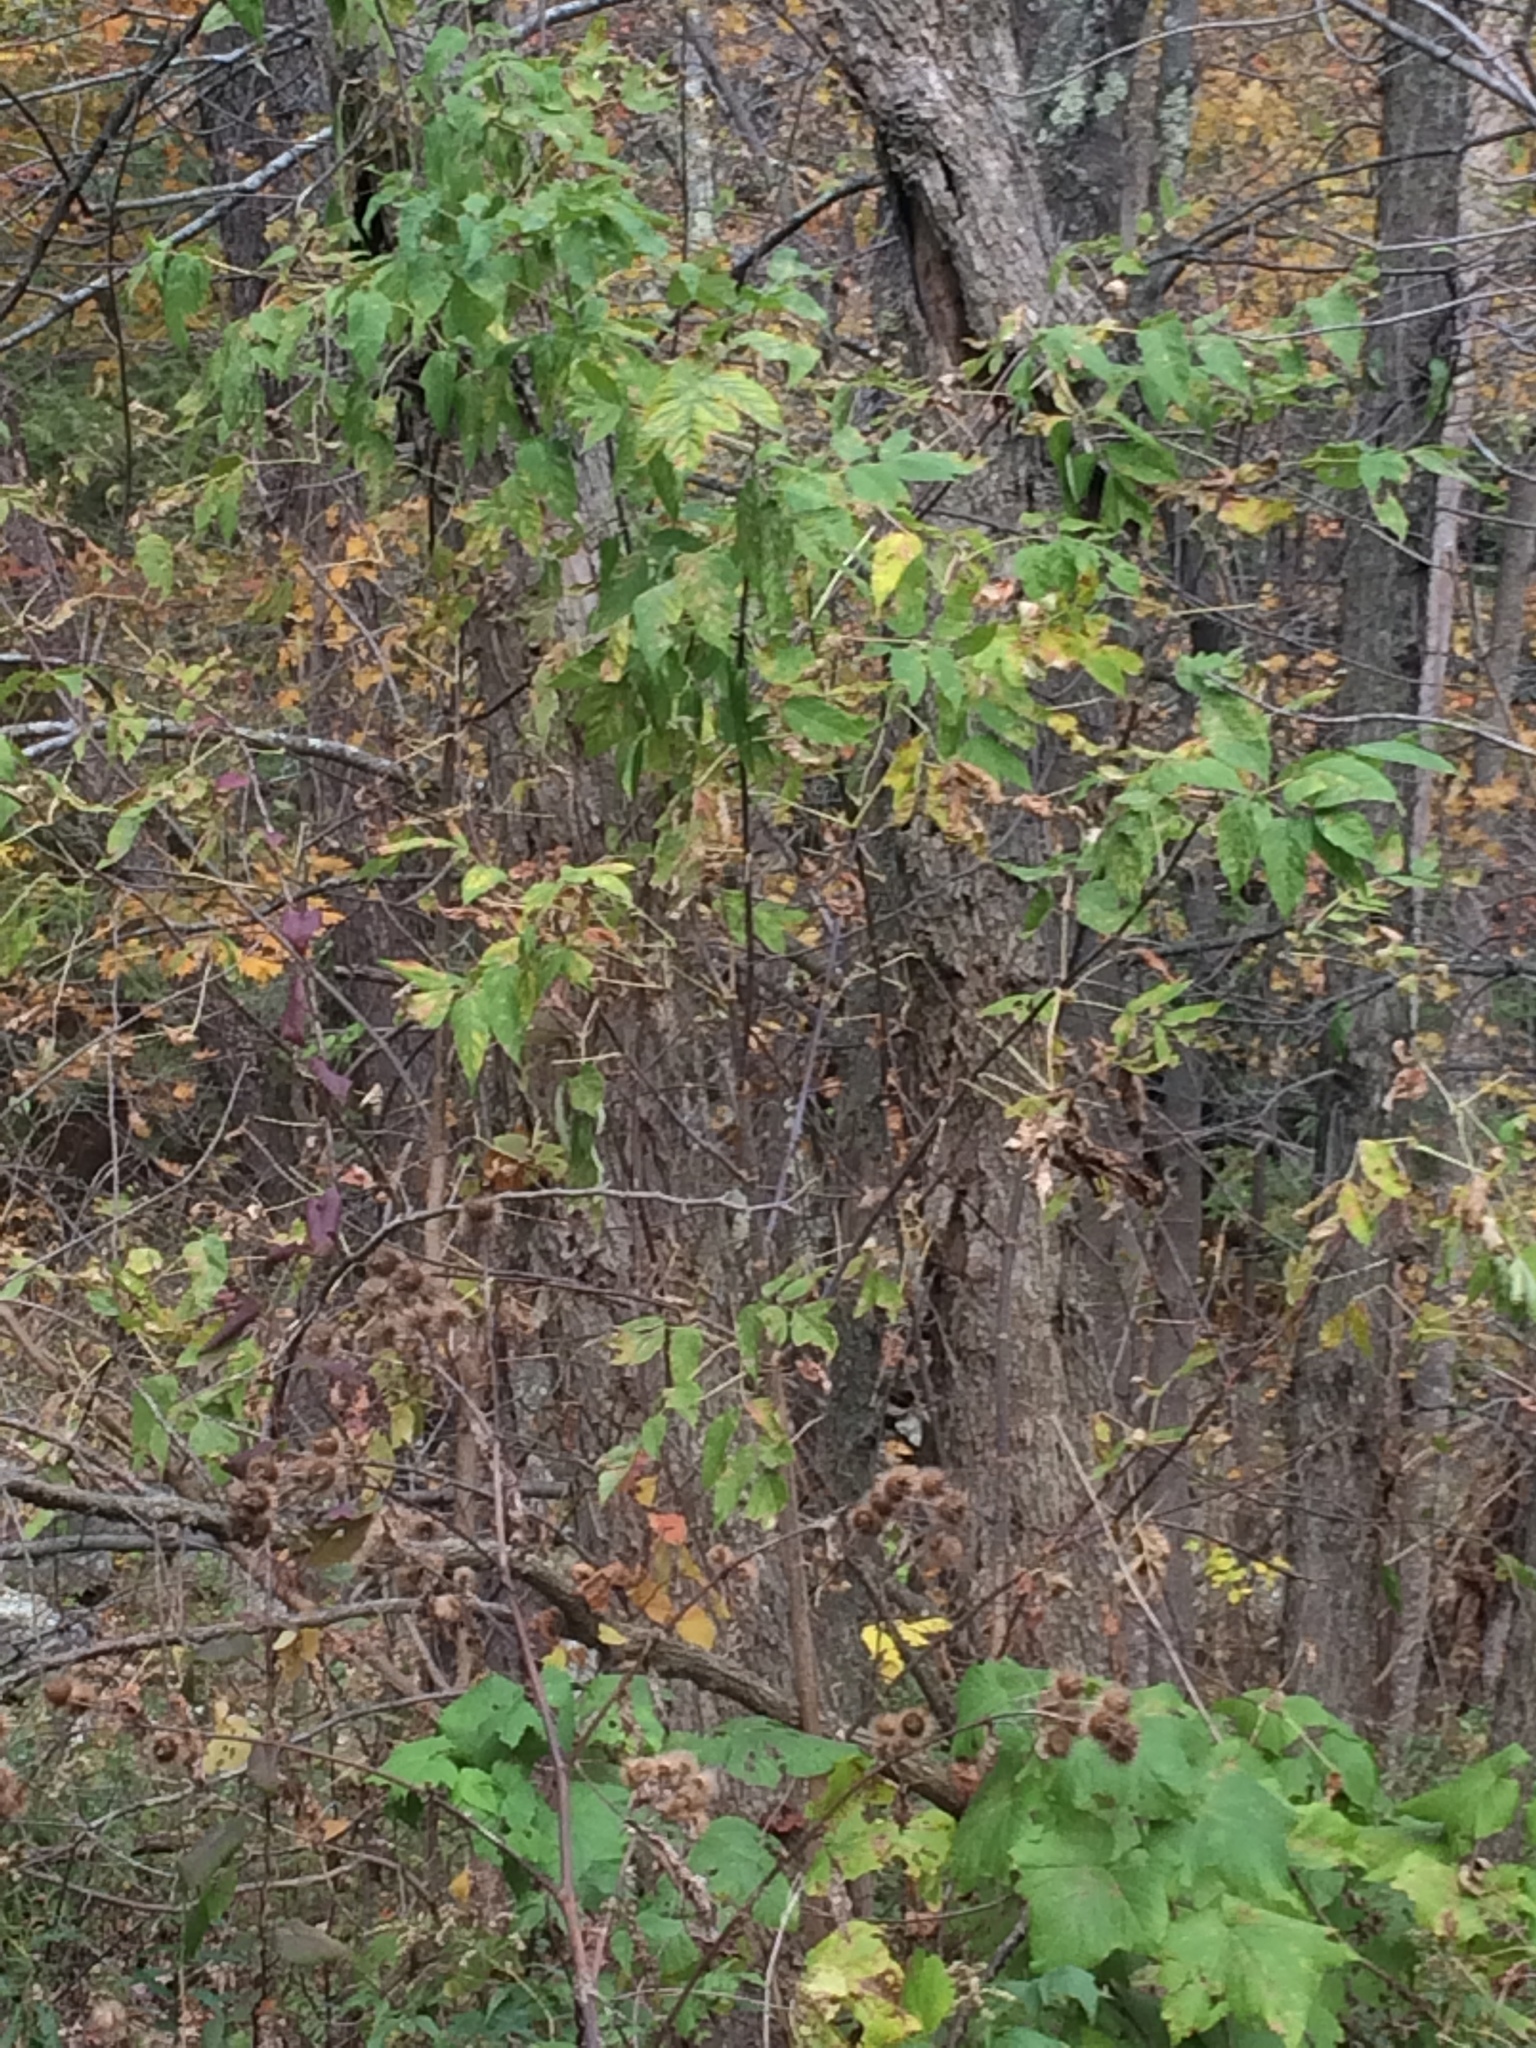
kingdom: Plantae
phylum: Tracheophyta
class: Magnoliopsida
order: Sapindales
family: Sapindaceae
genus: Acer
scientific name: Acer negundo
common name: Ashleaf maple
